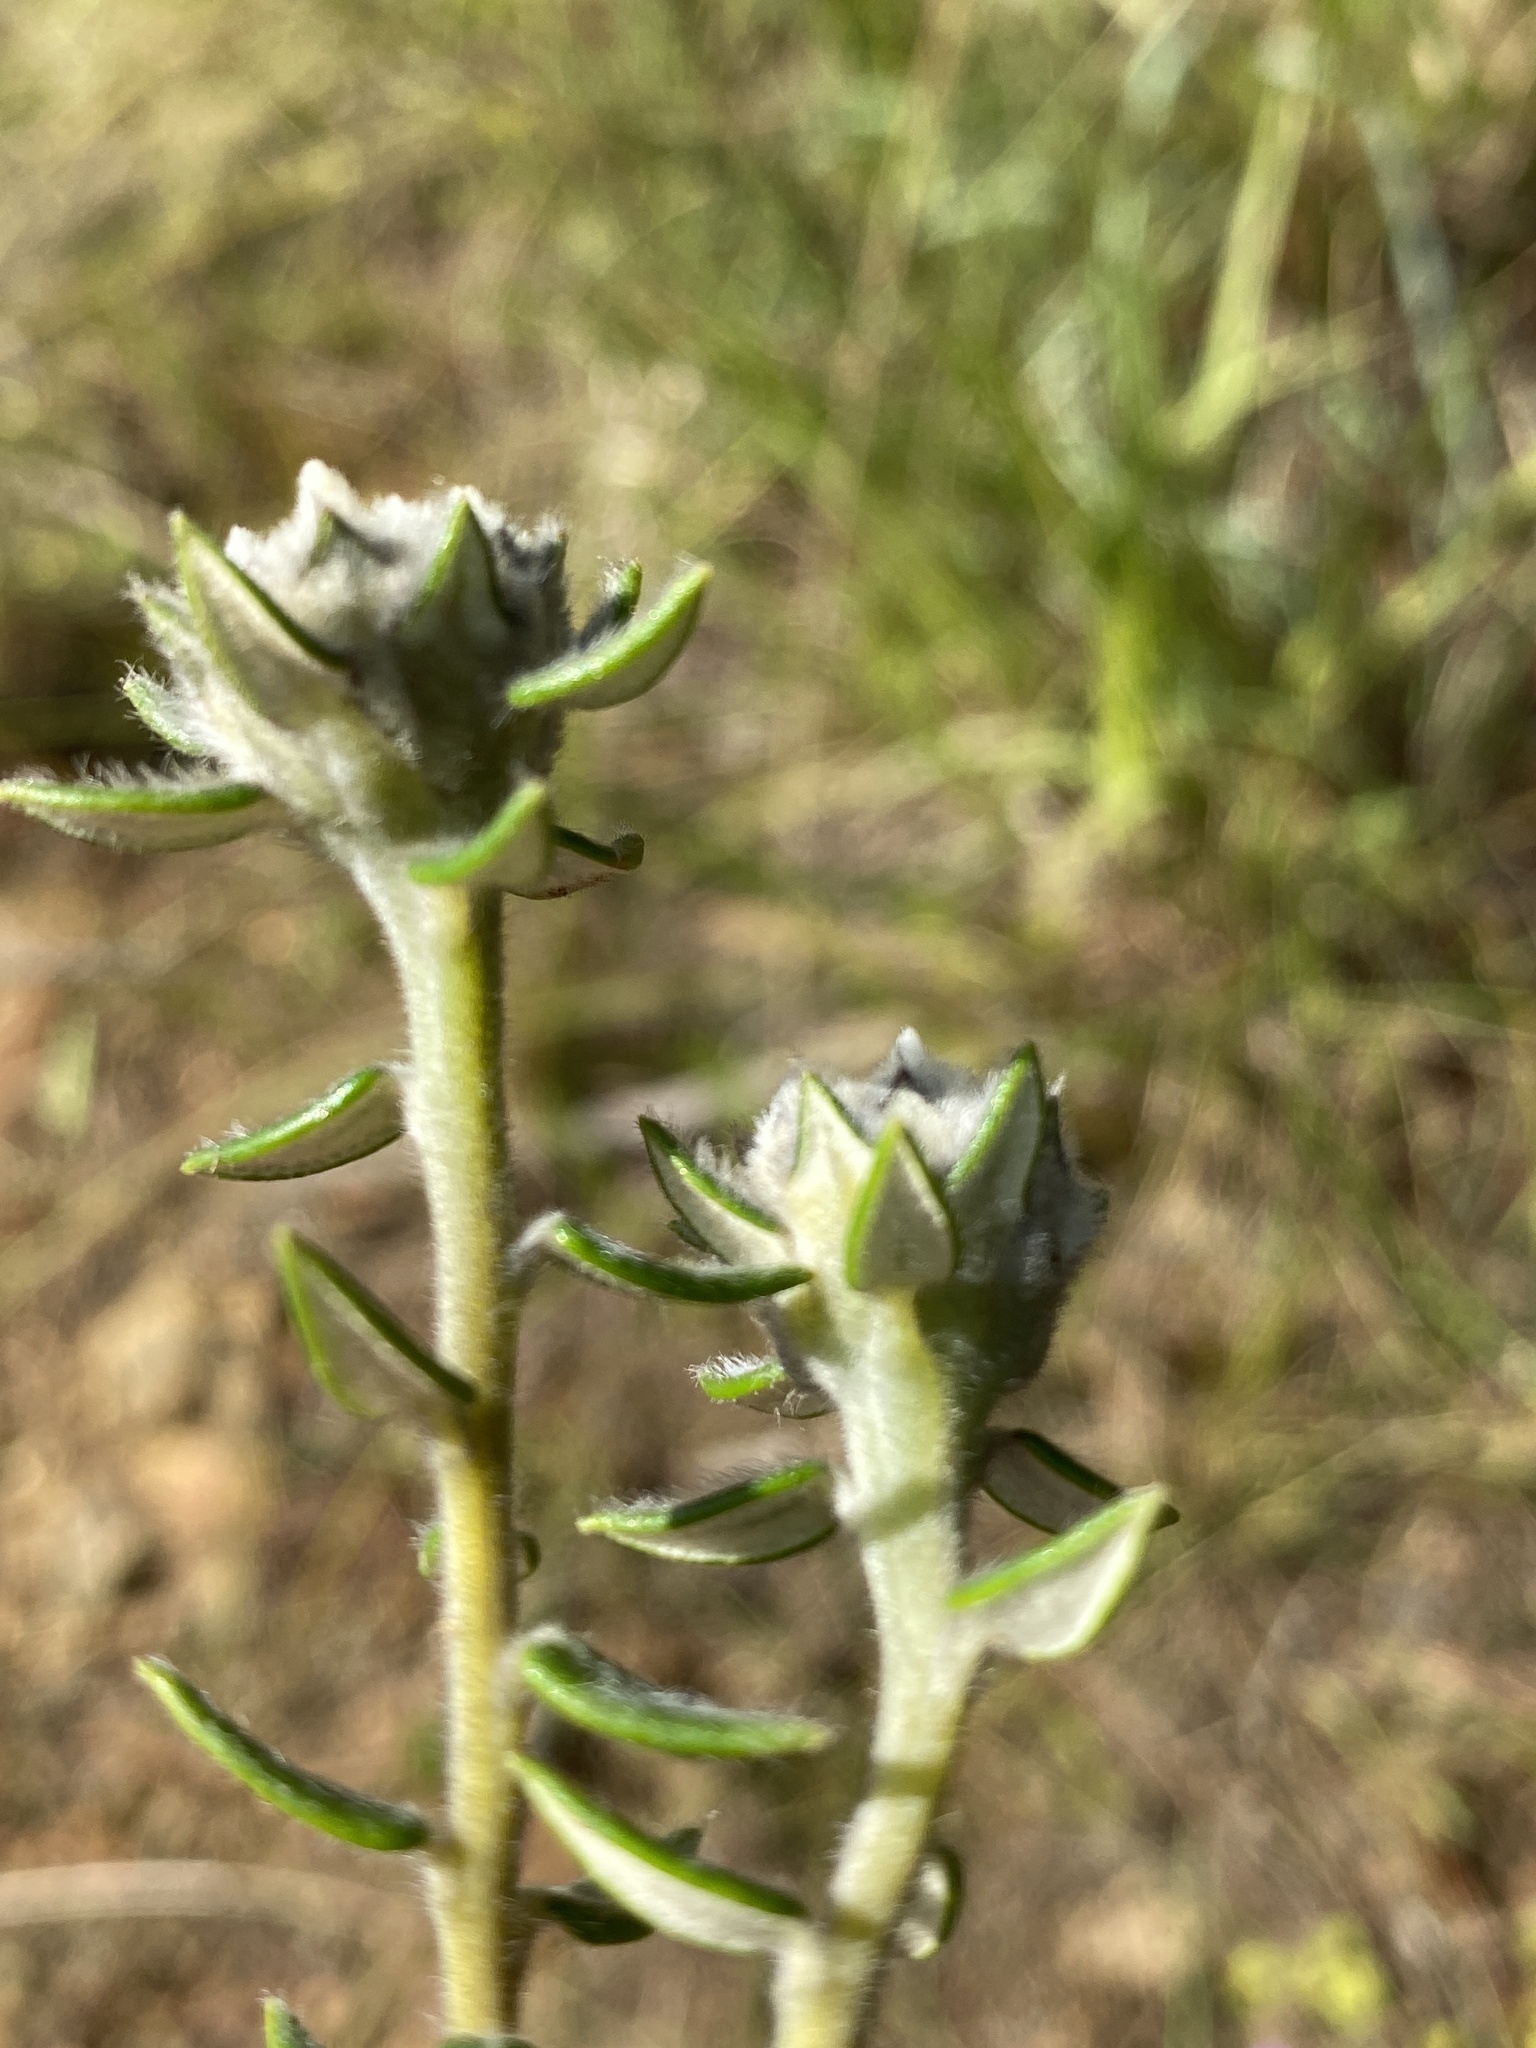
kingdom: Plantae
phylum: Tracheophyta
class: Magnoliopsida
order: Rosales
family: Rhamnaceae
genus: Phylica
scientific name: Phylica propinqua
